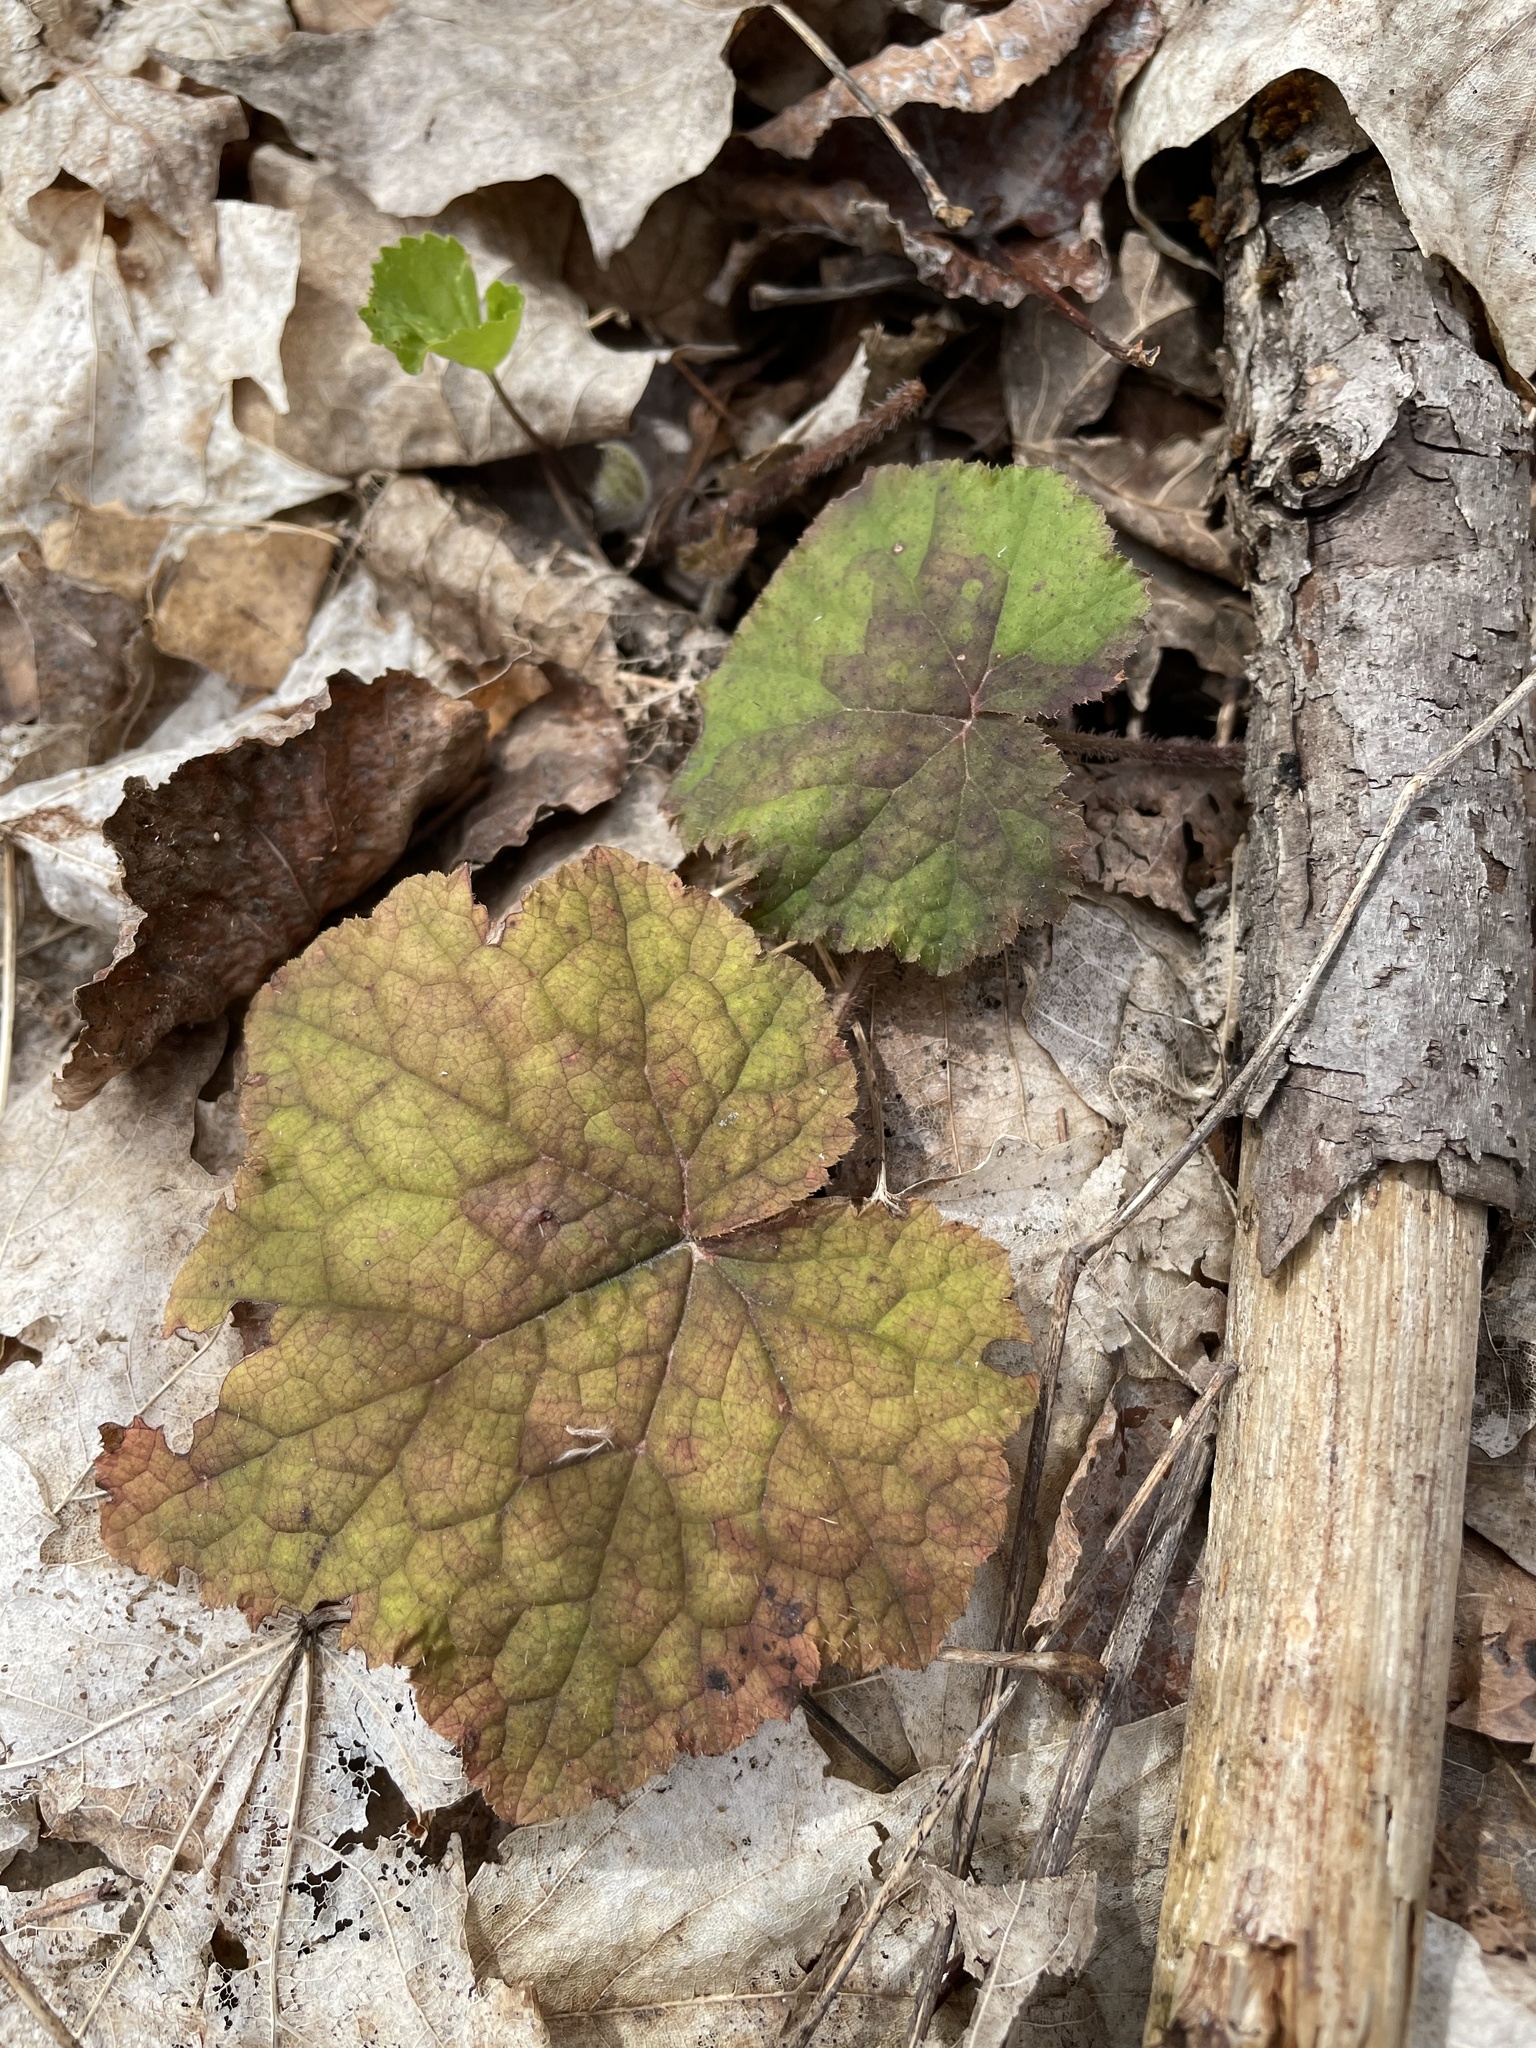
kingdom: Plantae
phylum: Tracheophyta
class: Magnoliopsida
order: Saxifragales
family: Saxifragaceae
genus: Tiarella
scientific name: Tiarella stolonifera
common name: Stoloniferous foamflower
